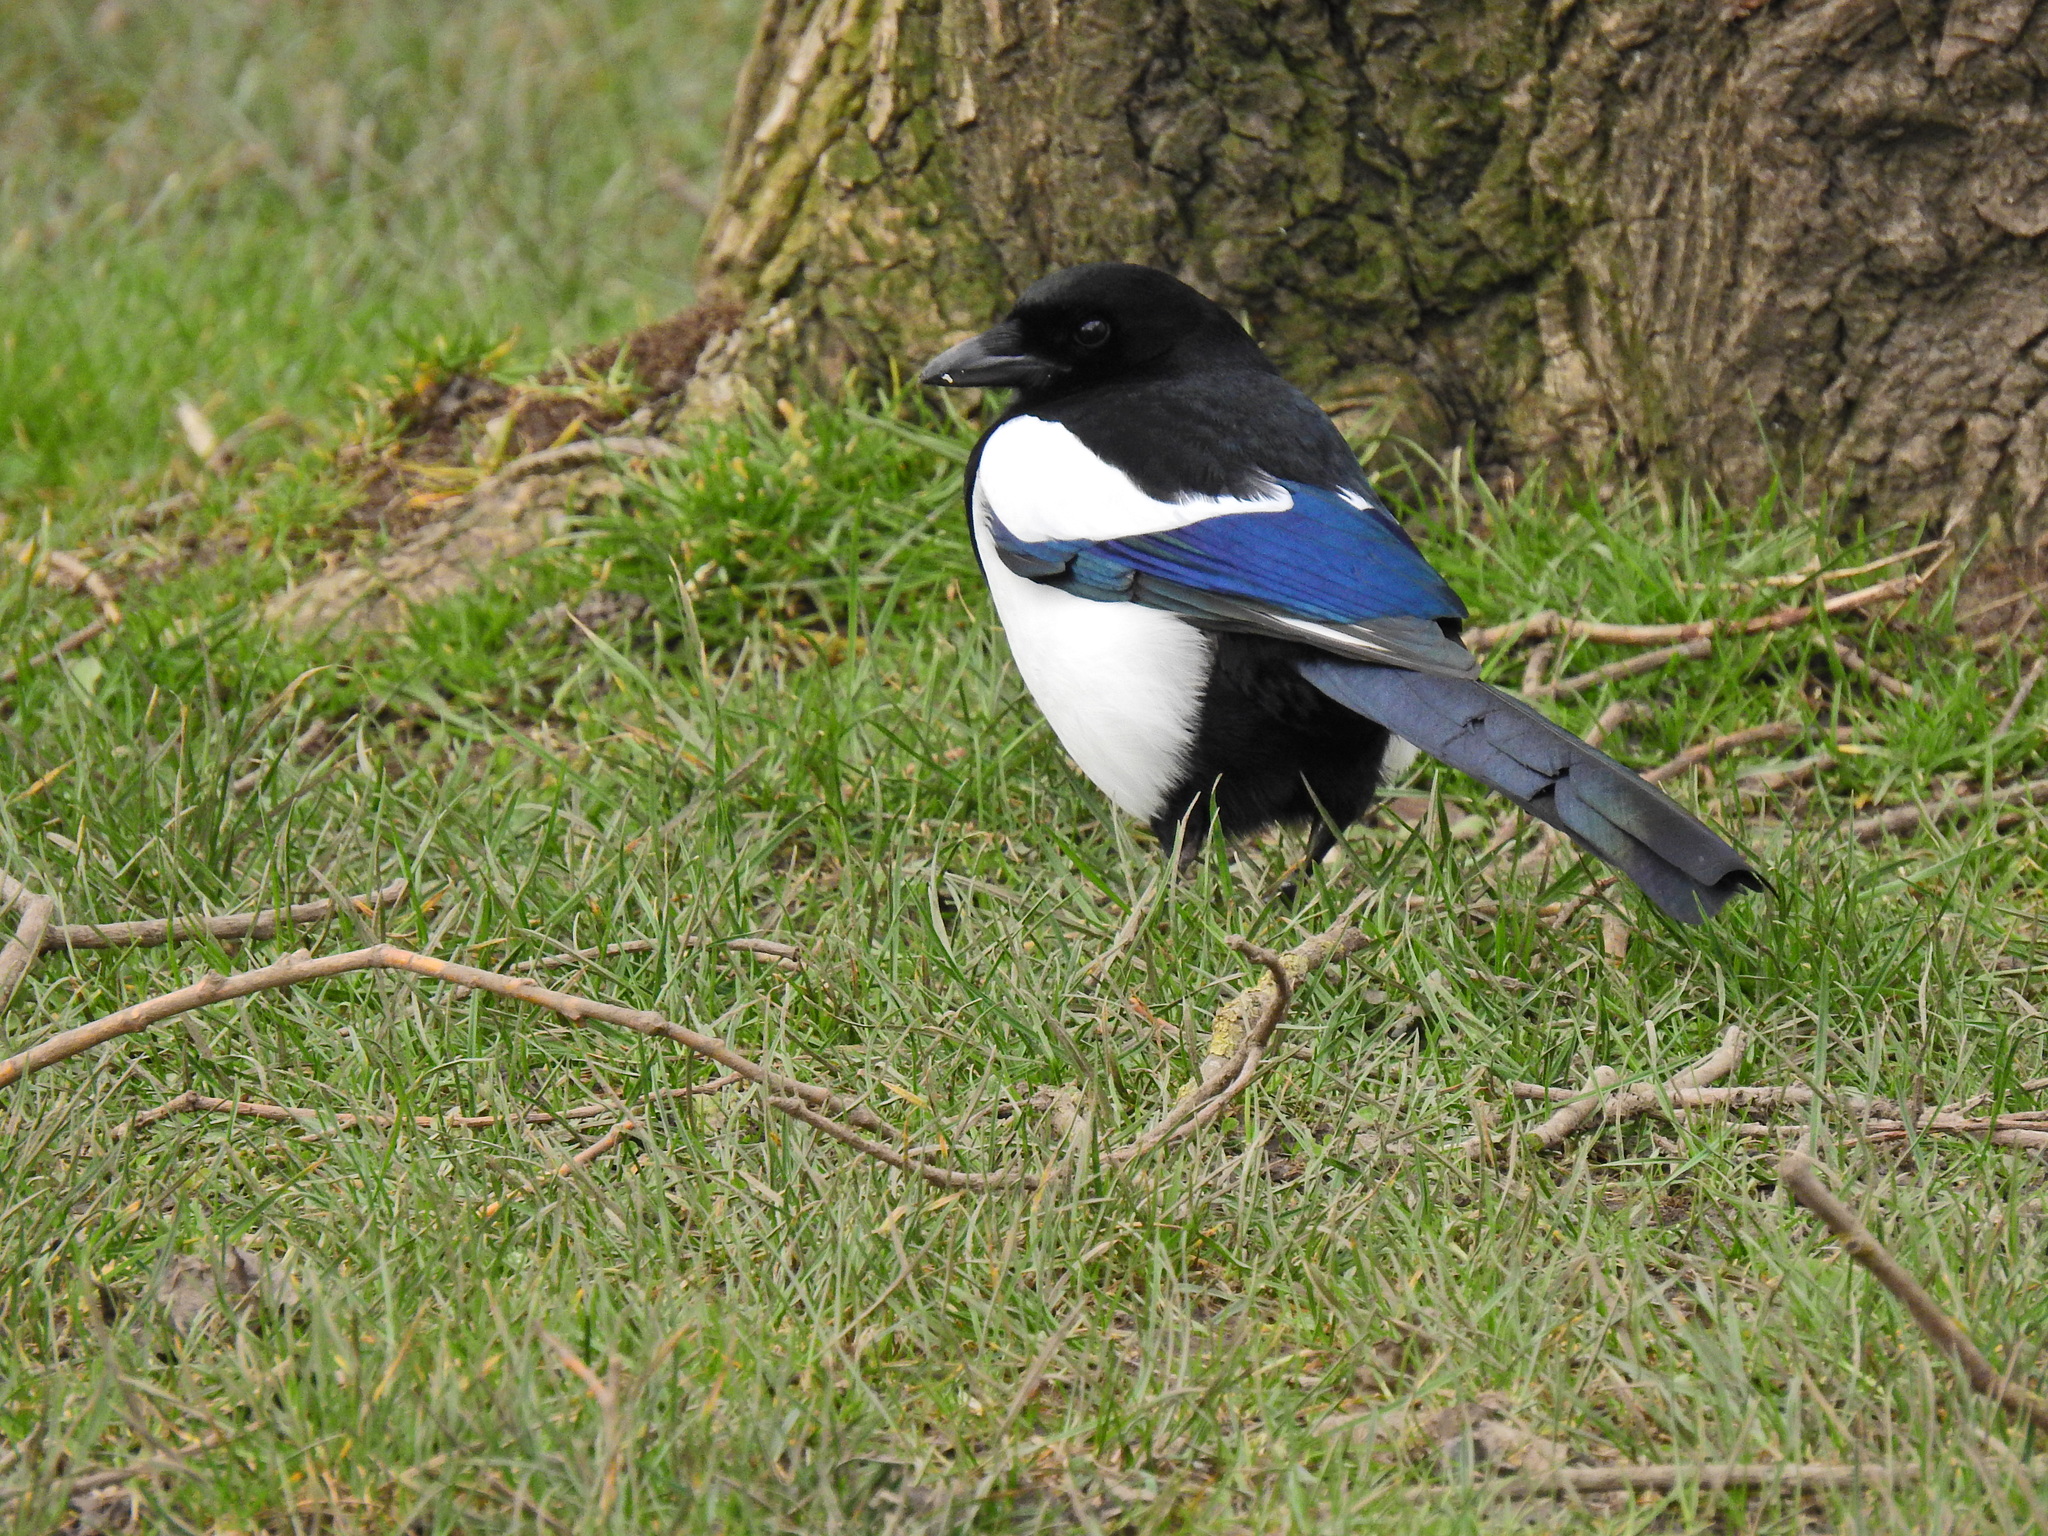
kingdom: Animalia
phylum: Chordata
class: Aves
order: Passeriformes
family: Corvidae
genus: Pica
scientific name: Pica pica
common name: Eurasian magpie
